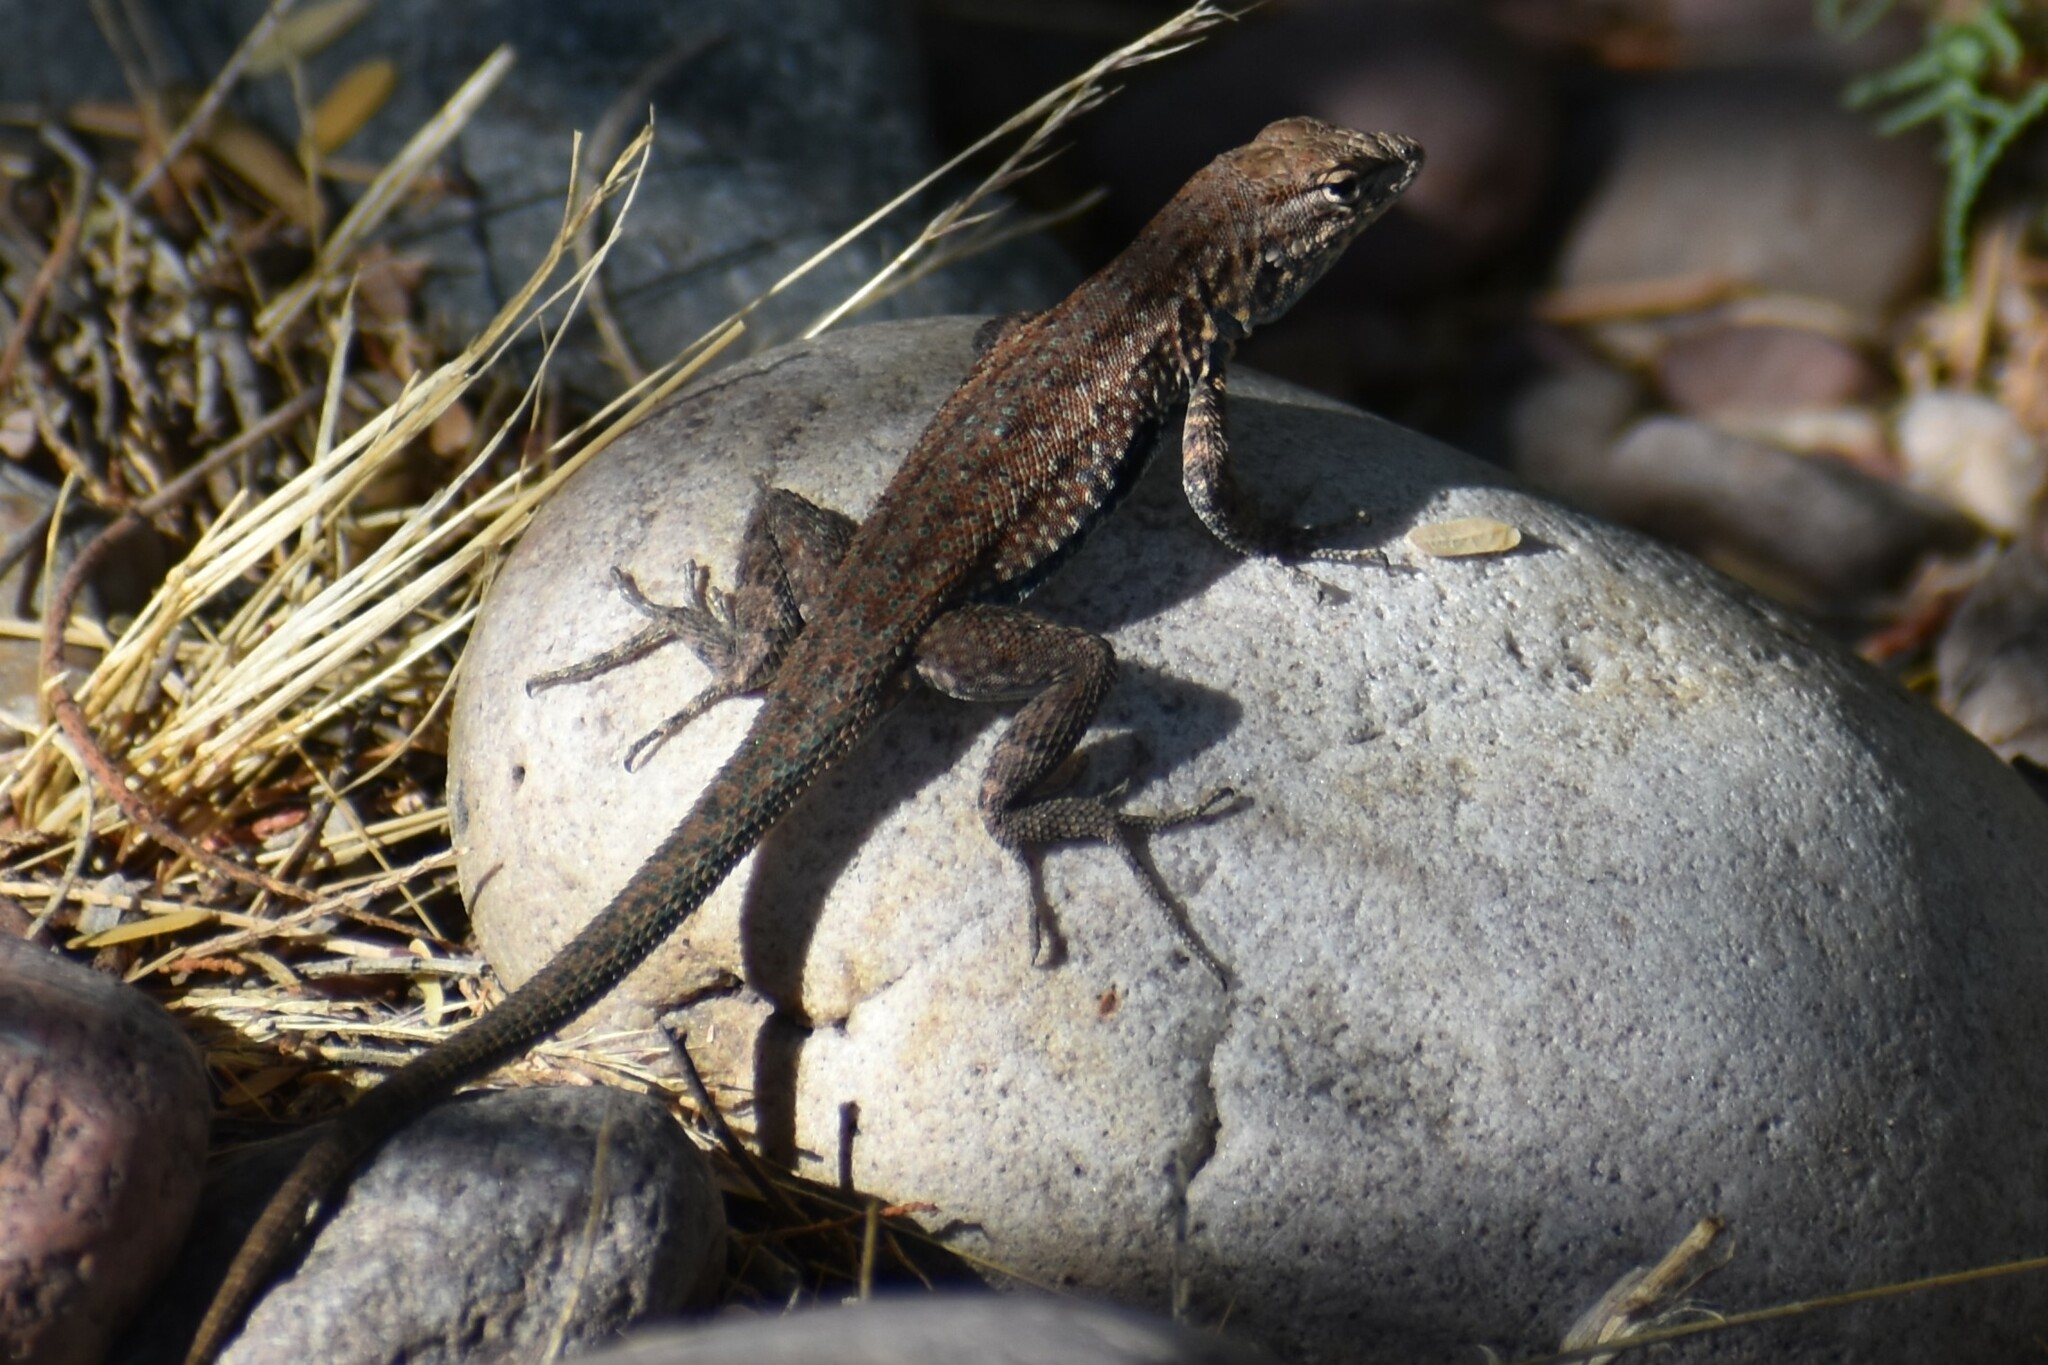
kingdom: Animalia
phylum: Chordata
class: Squamata
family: Phrynosomatidae
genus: Uta
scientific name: Uta stansburiana
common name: Side-blotched lizard
